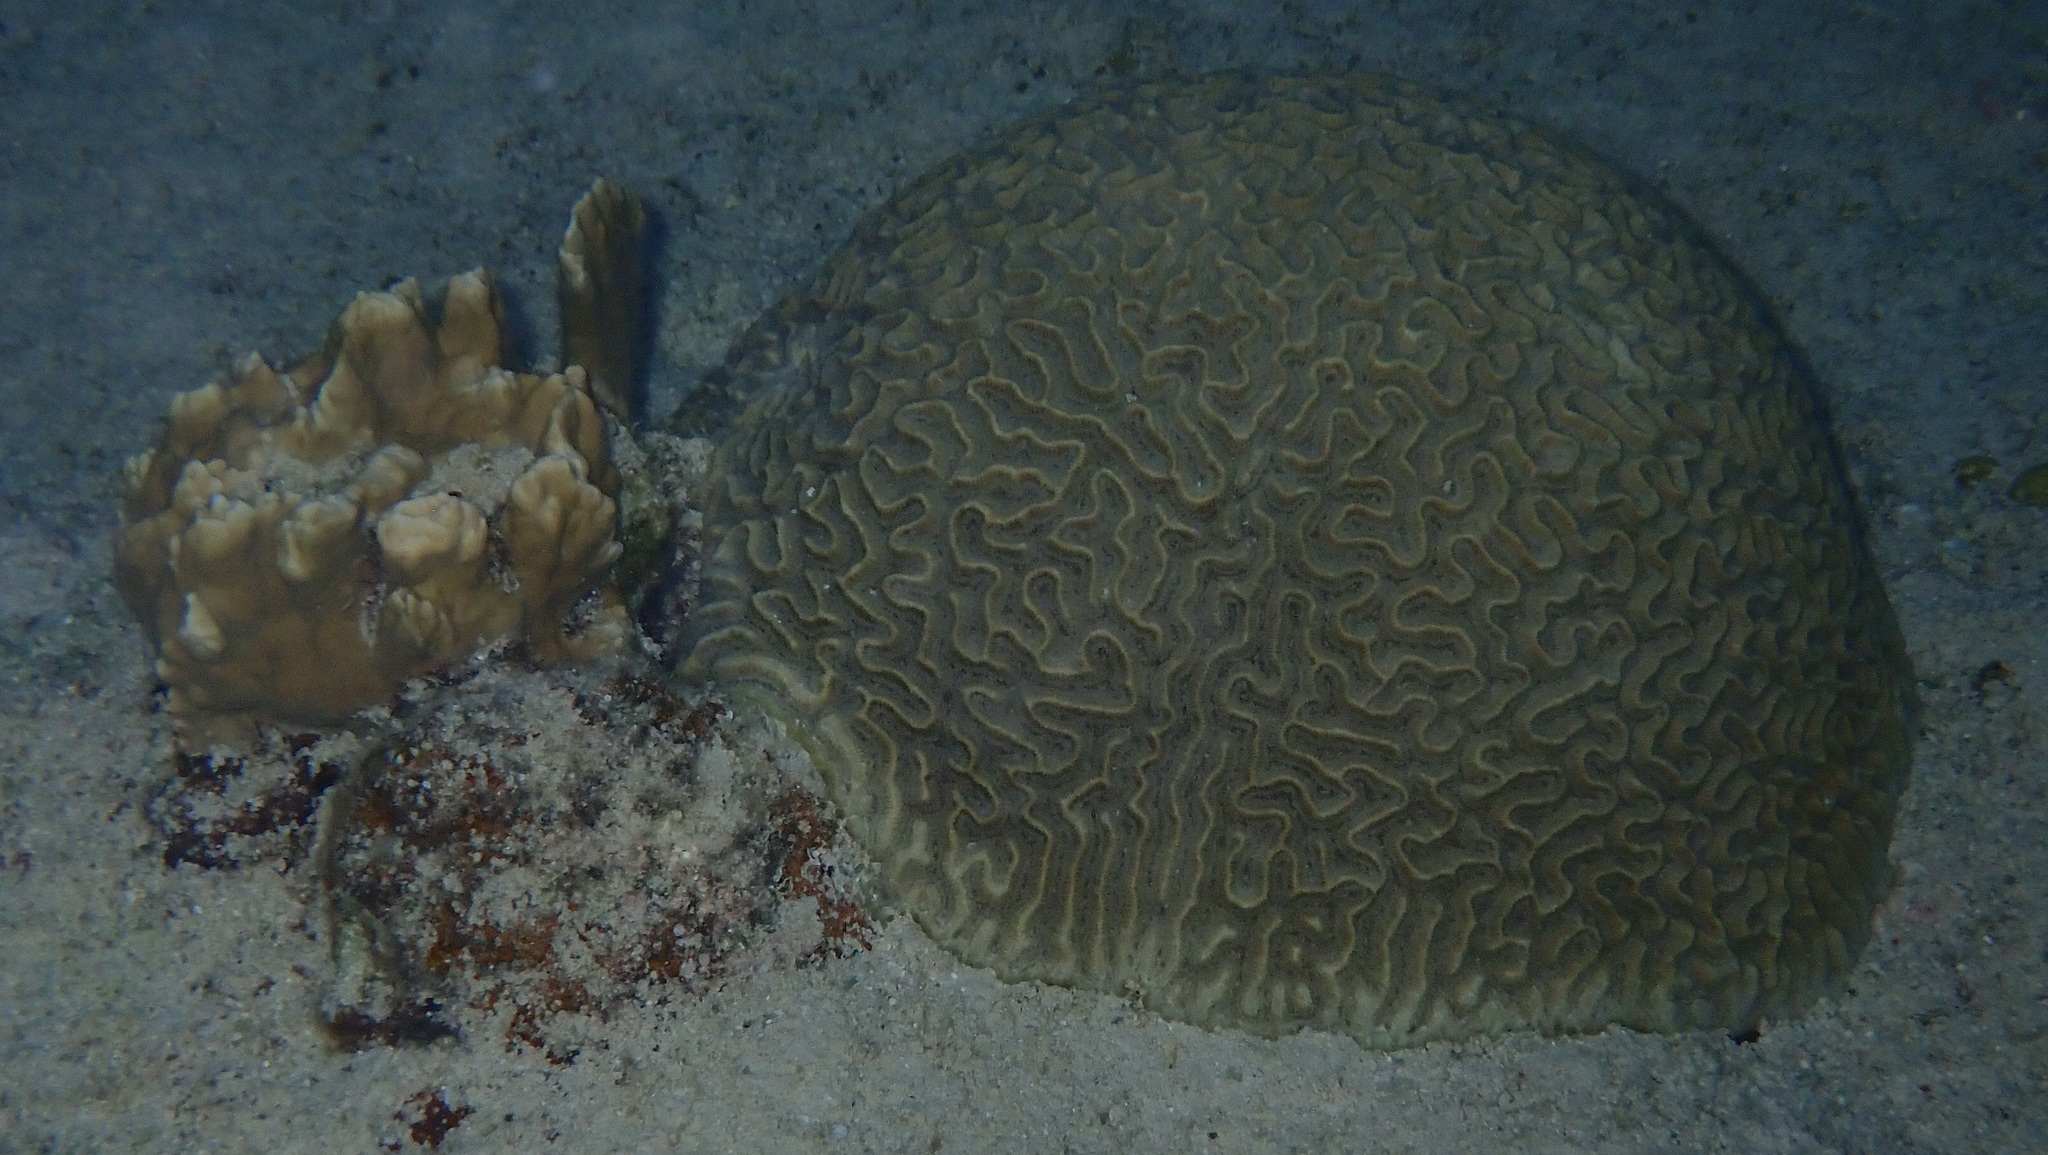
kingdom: Animalia
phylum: Cnidaria
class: Anthozoa
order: Scleractinia
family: Faviidae
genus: Pseudodiploria
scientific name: Pseudodiploria strigosa
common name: Symmetrical brain coral
